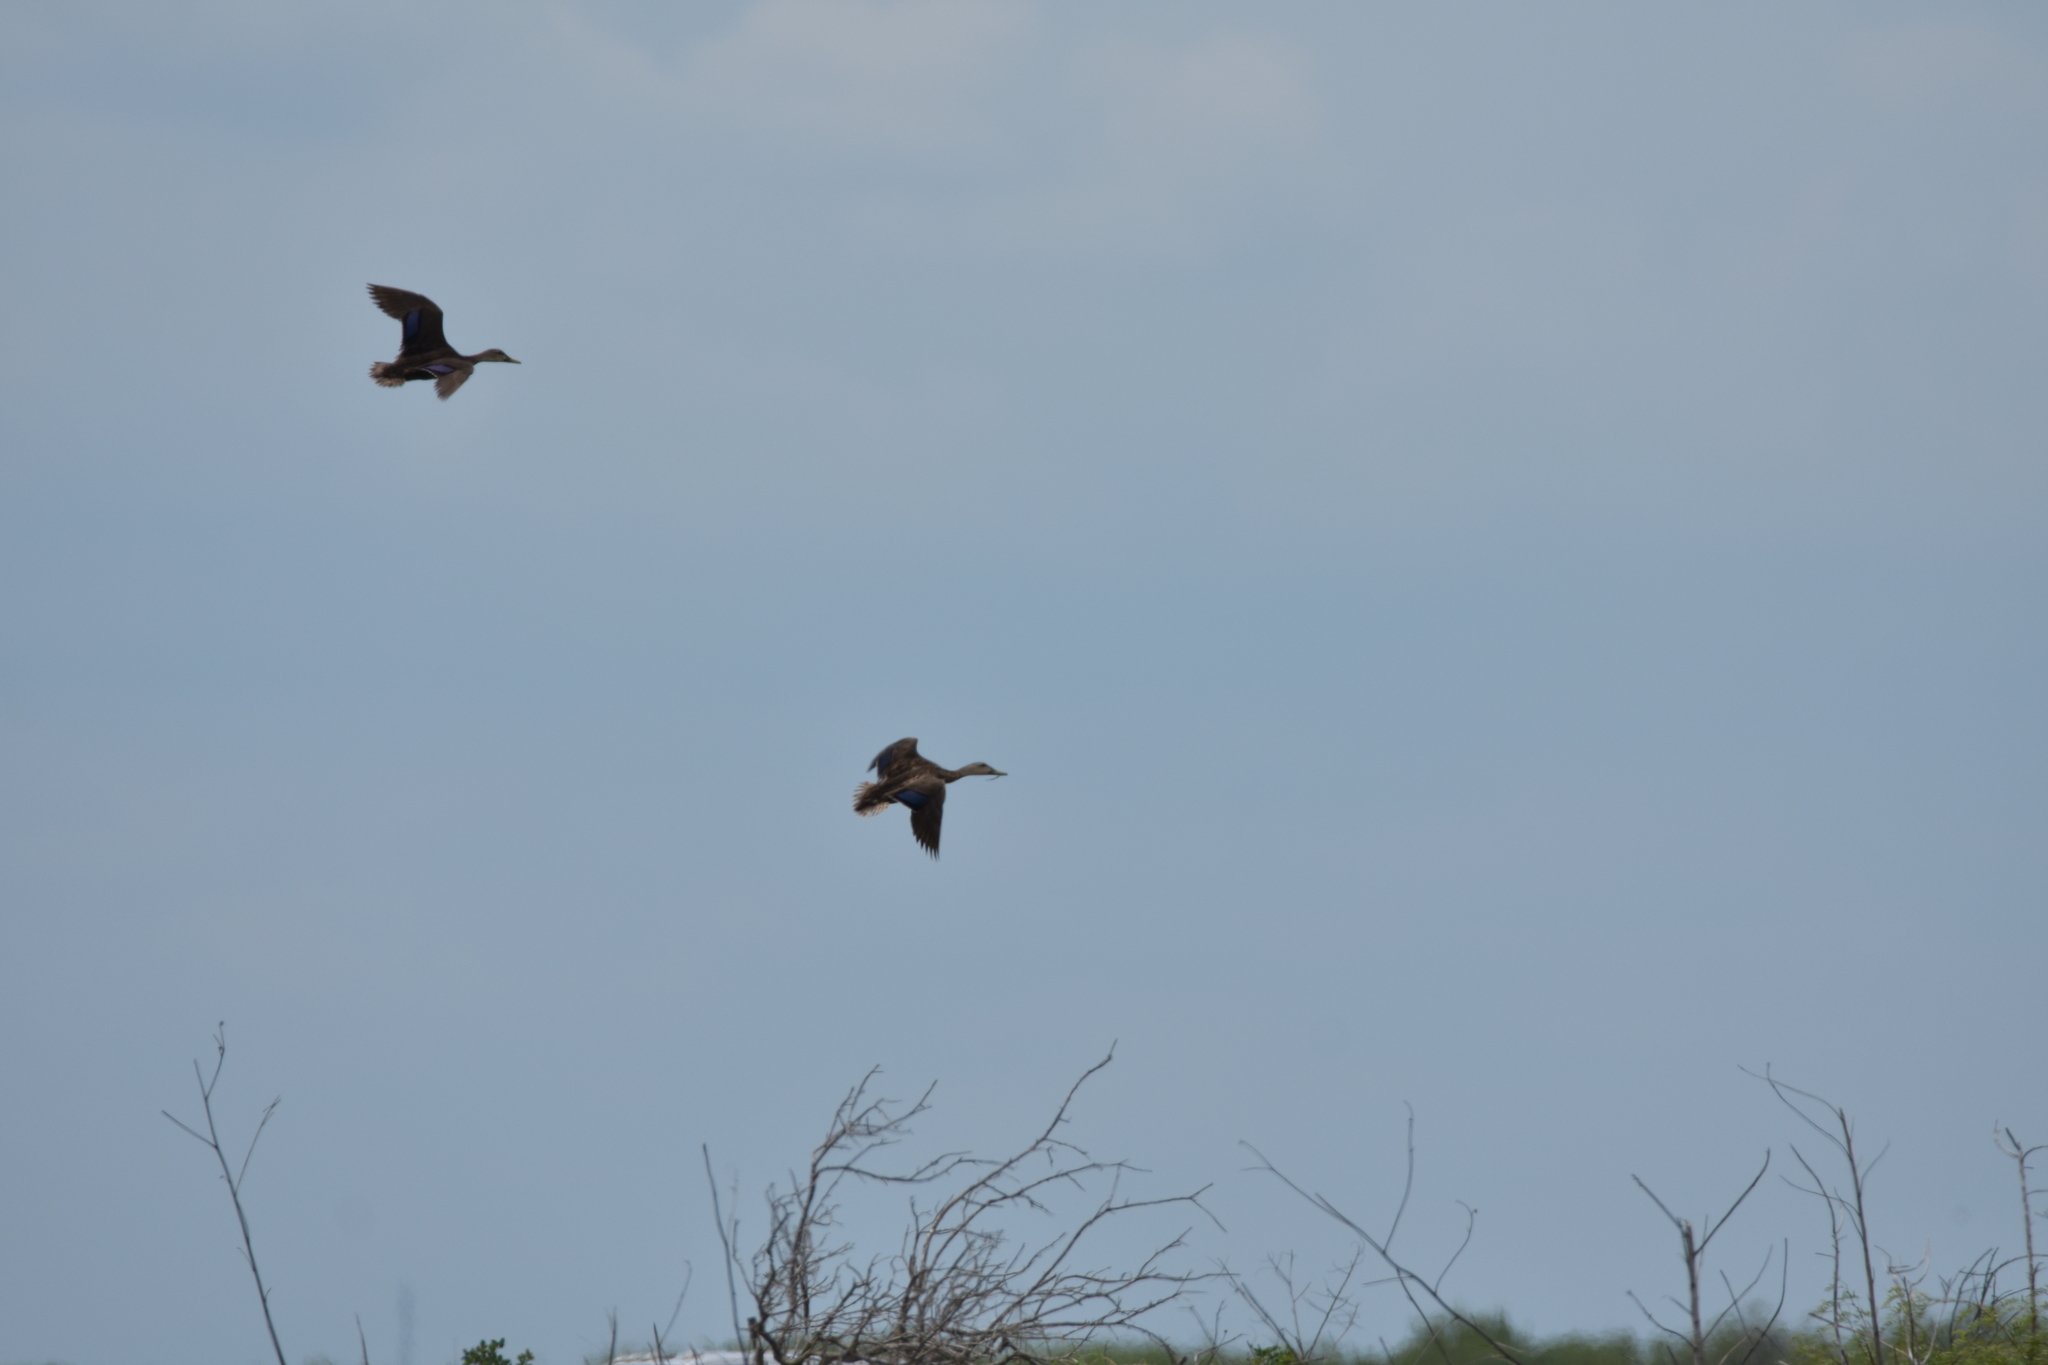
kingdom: Animalia
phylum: Chordata
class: Aves
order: Anseriformes
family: Anatidae
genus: Anas
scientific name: Anas fulvigula
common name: Mottled duck
